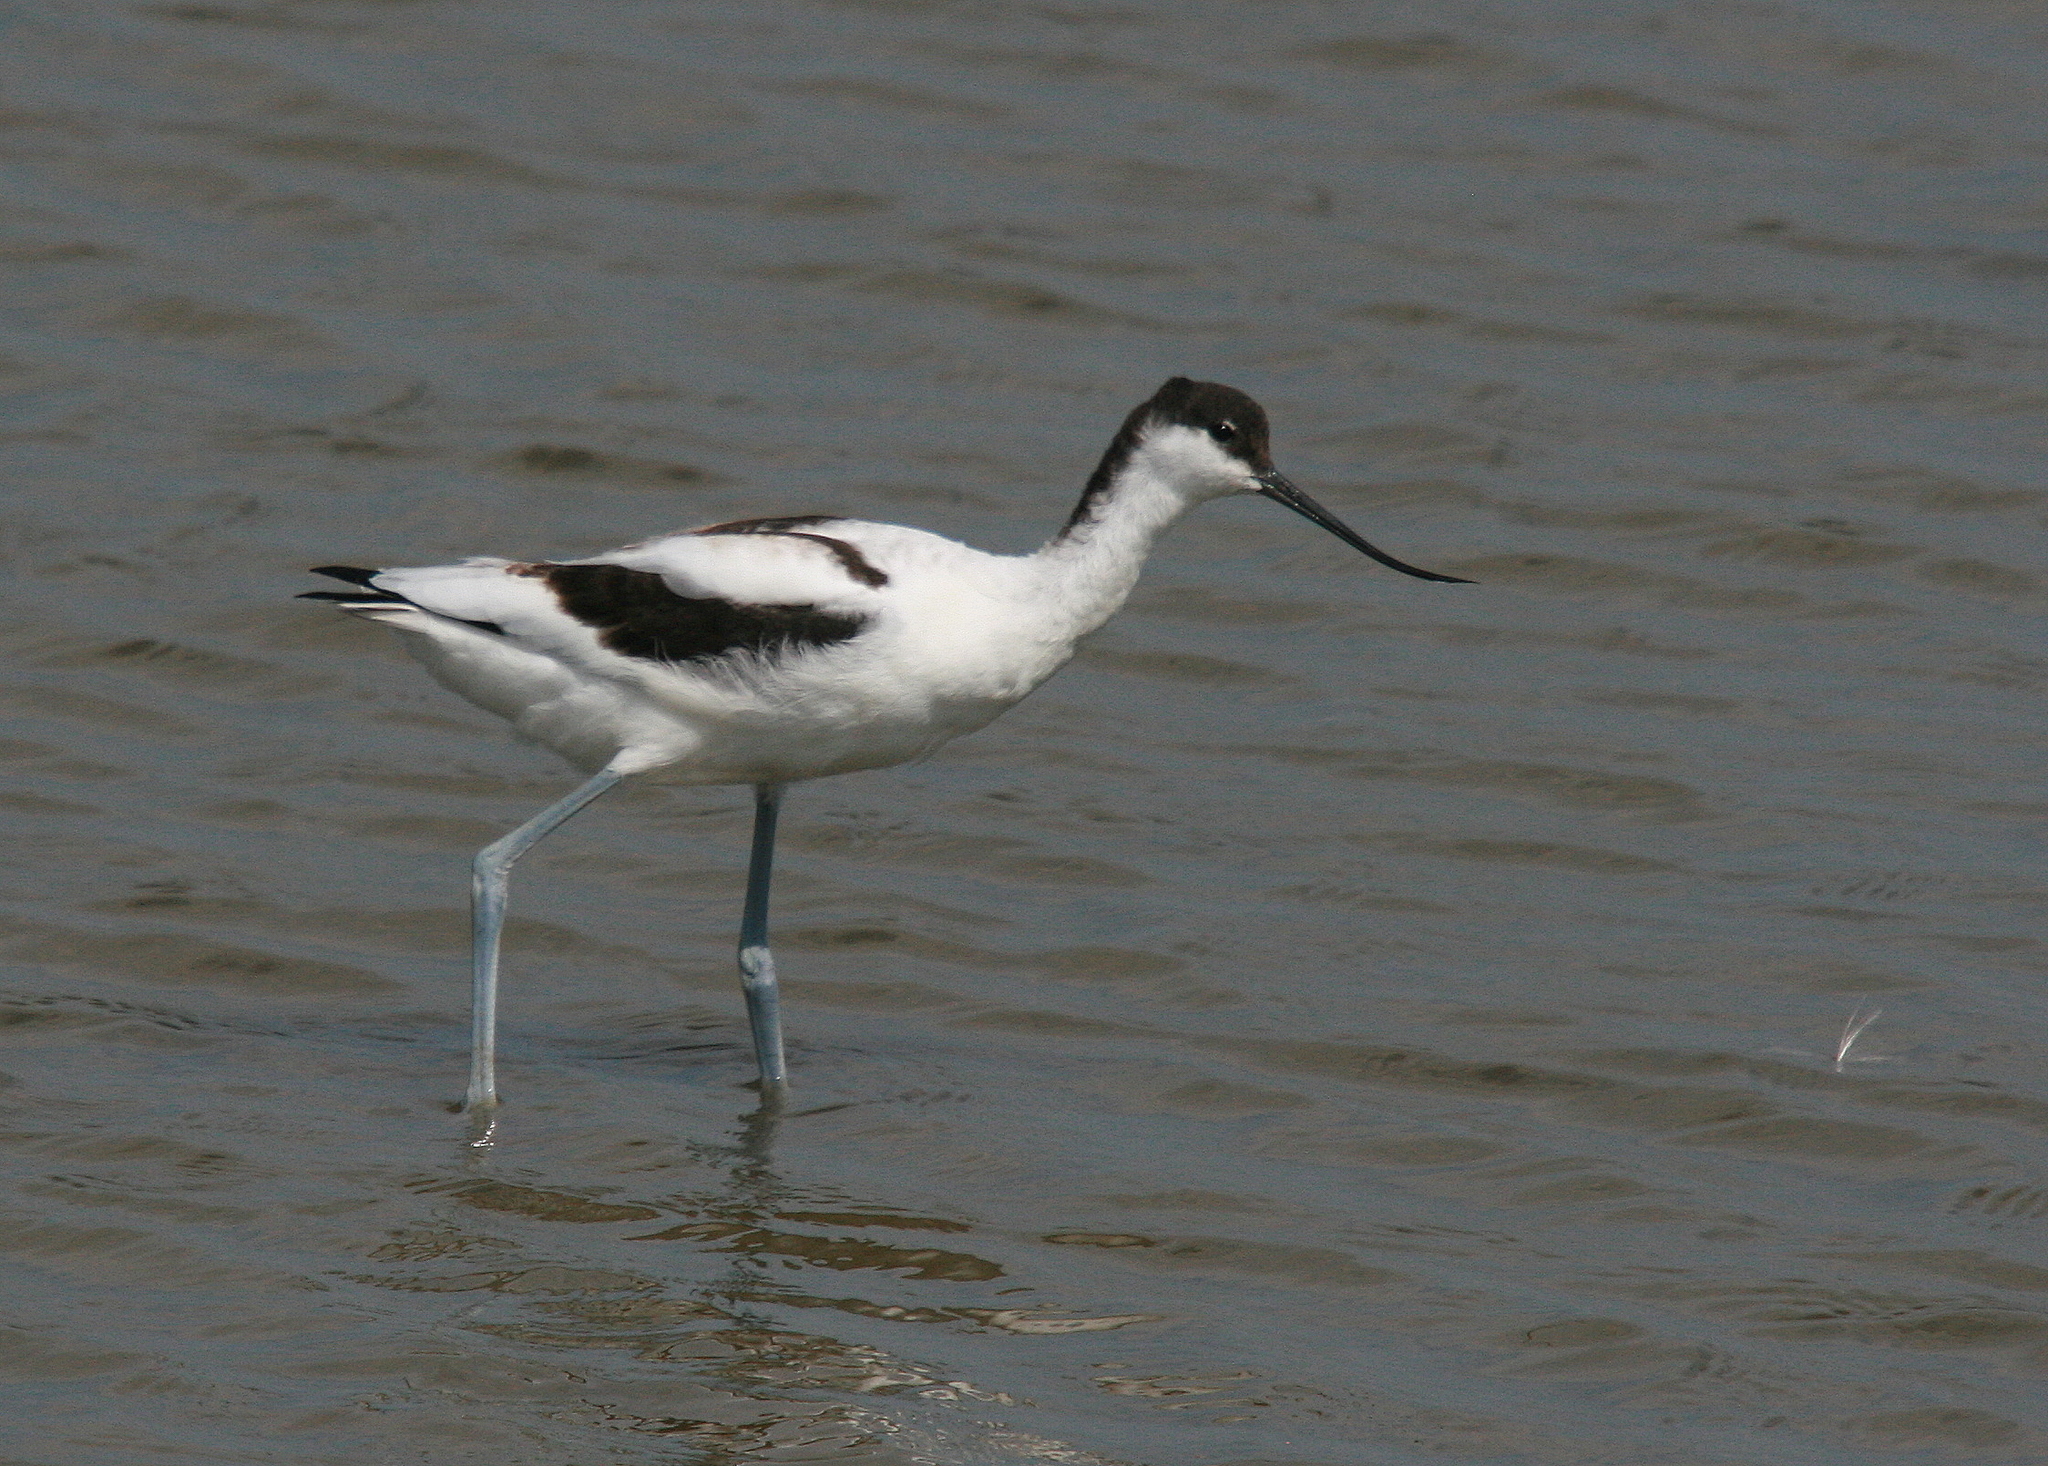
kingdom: Animalia
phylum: Chordata
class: Aves
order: Charadriiformes
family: Recurvirostridae
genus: Recurvirostra
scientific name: Recurvirostra avosetta
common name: Pied avocet
